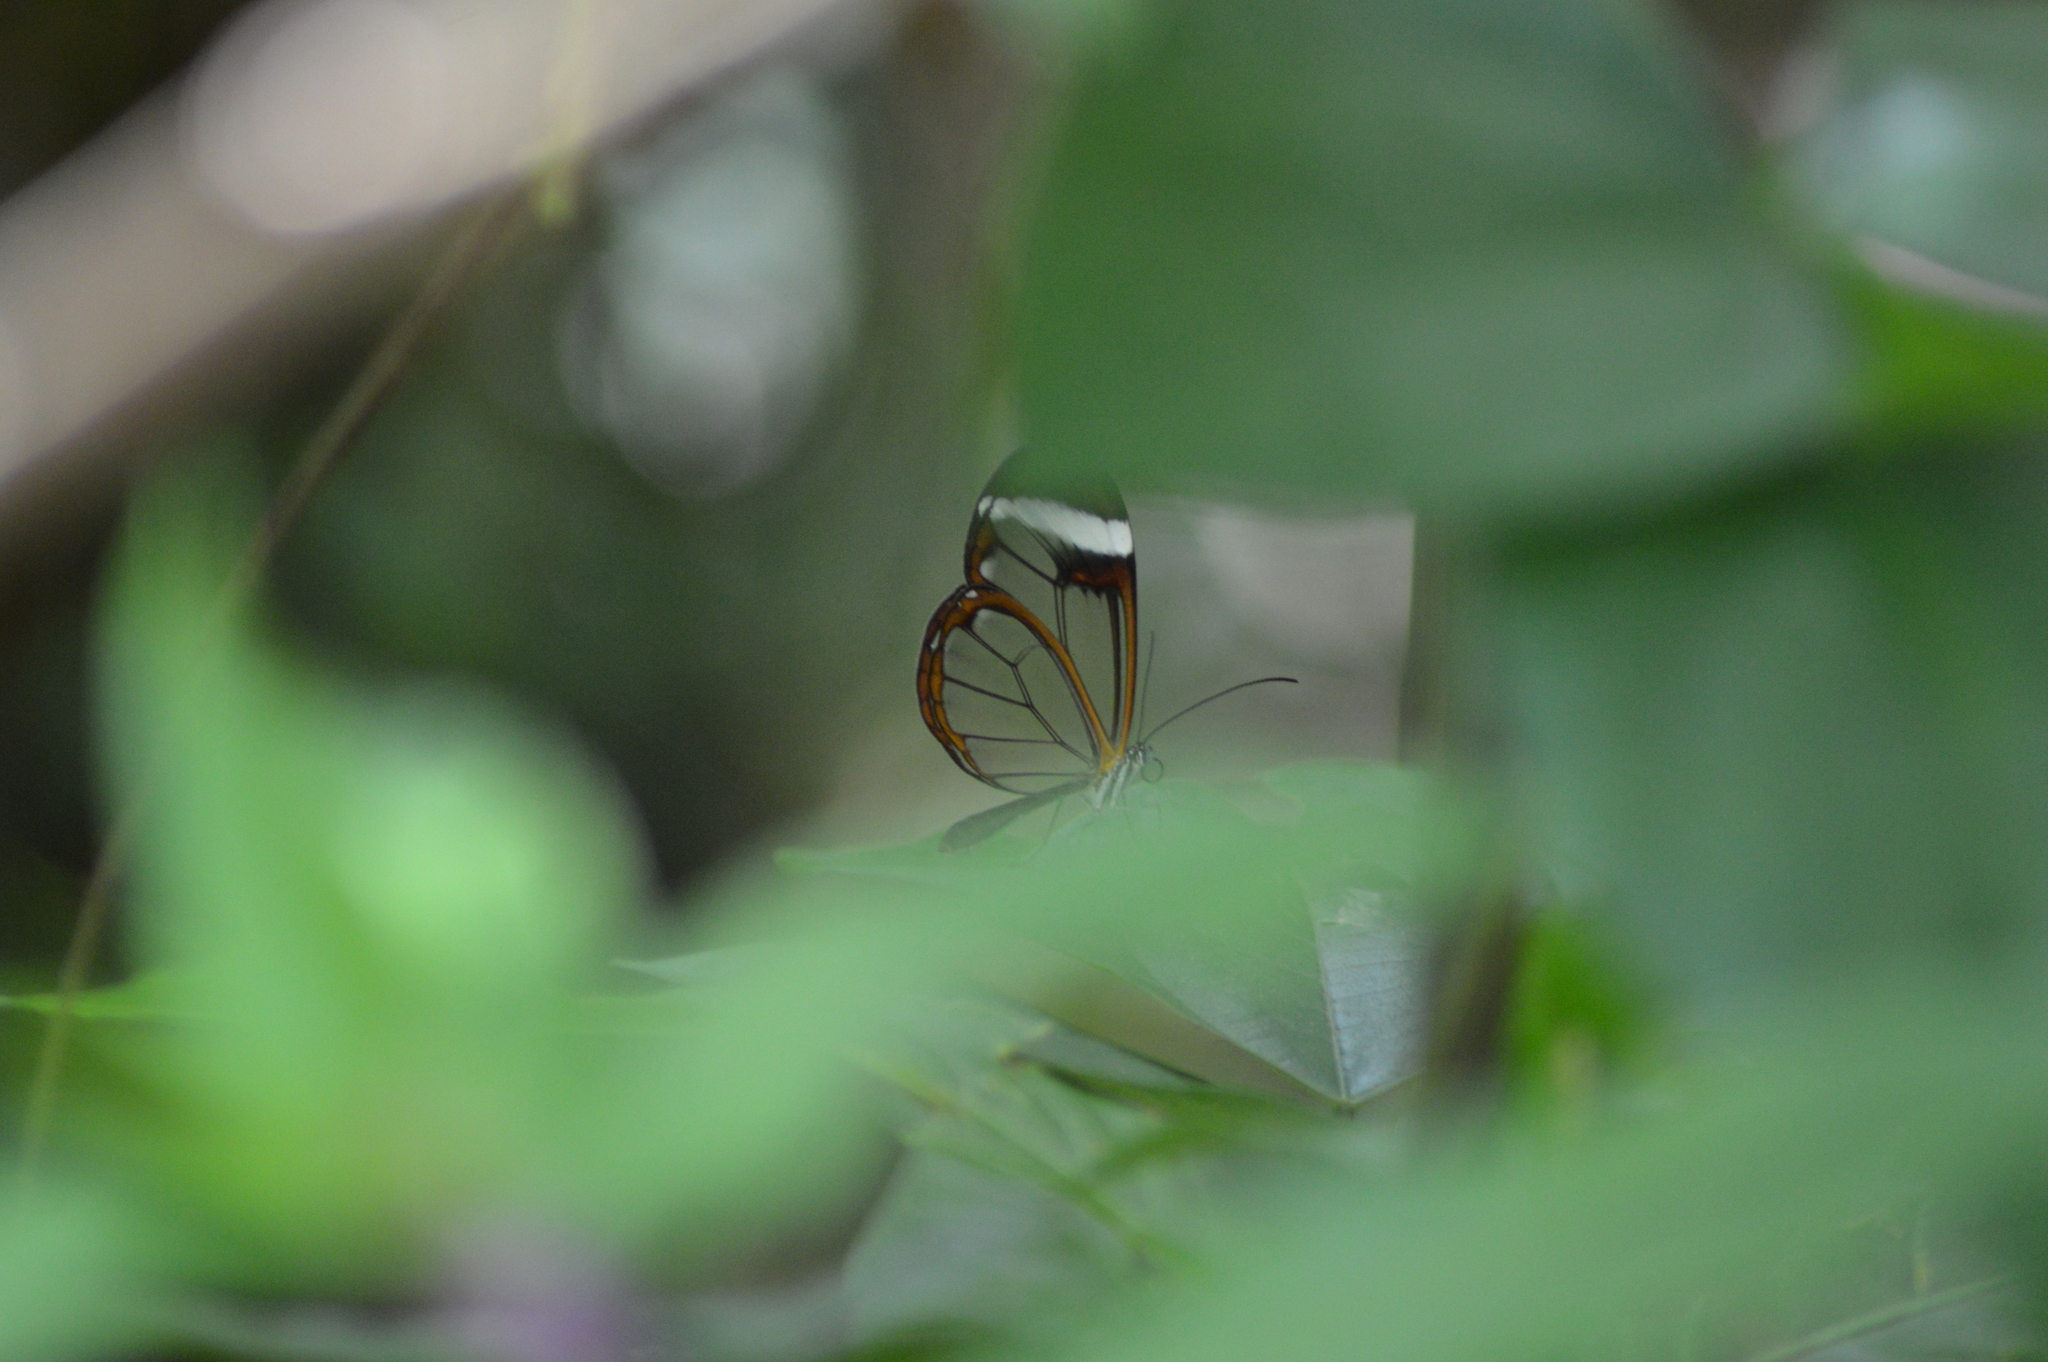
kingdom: Animalia
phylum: Arthropoda
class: Insecta
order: Lepidoptera
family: Nymphalidae
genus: Greta
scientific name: Greta morgane
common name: Thick-tipped greta
